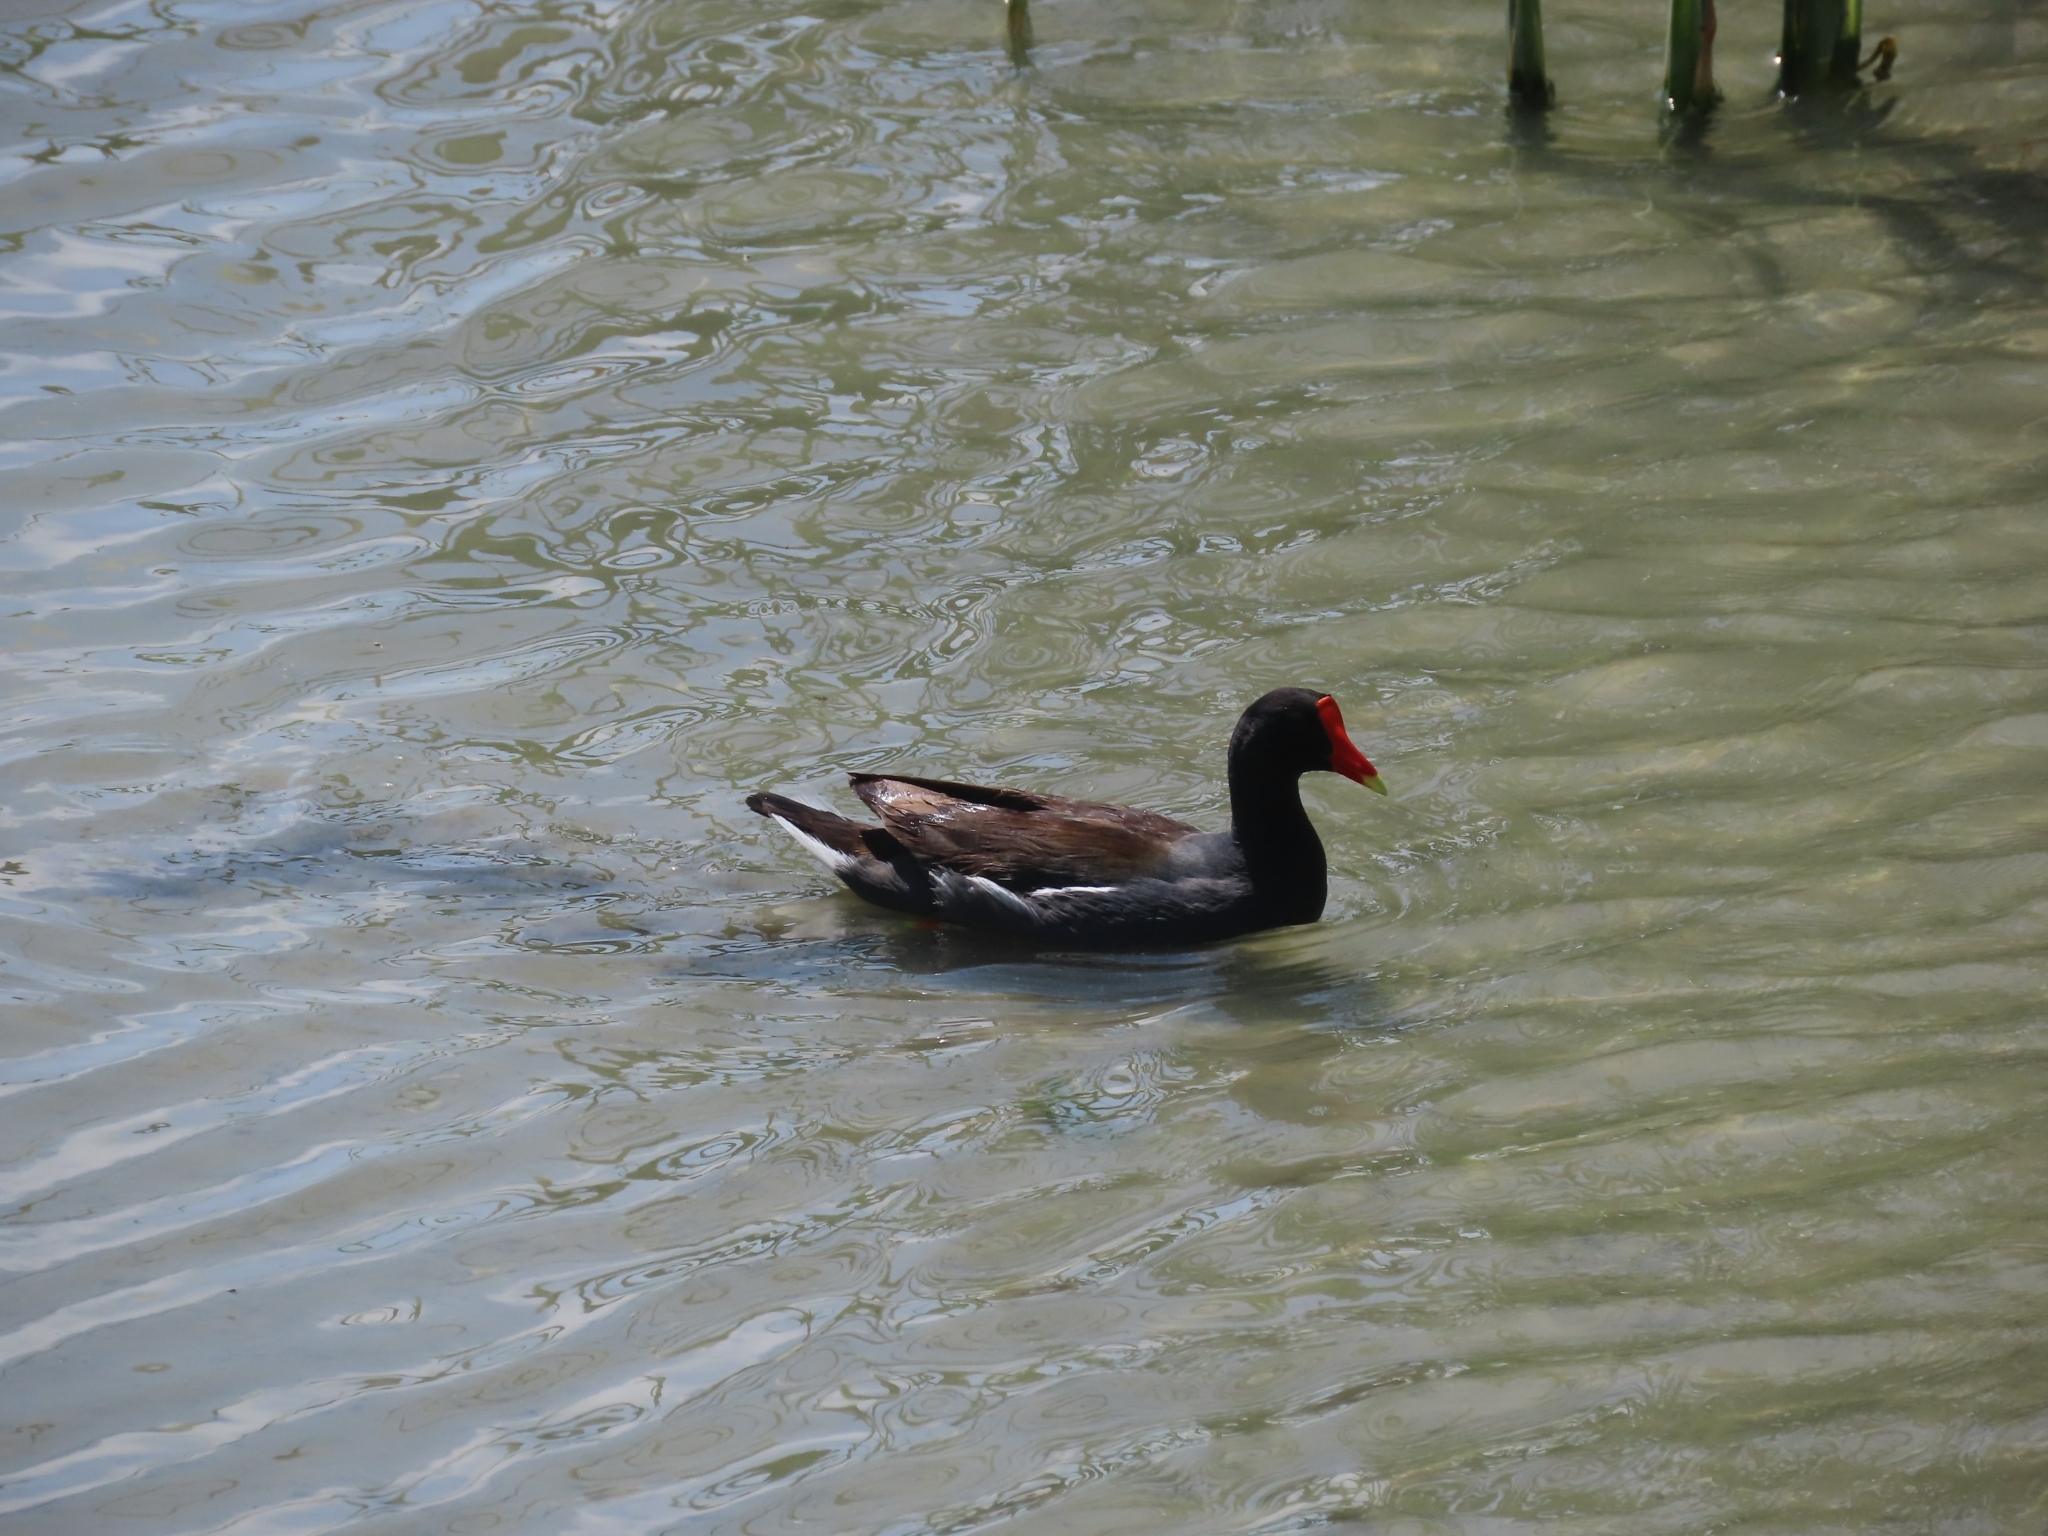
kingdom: Animalia
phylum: Chordata
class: Aves
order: Gruiformes
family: Rallidae
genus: Gallinula
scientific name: Gallinula chloropus
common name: Common moorhen
